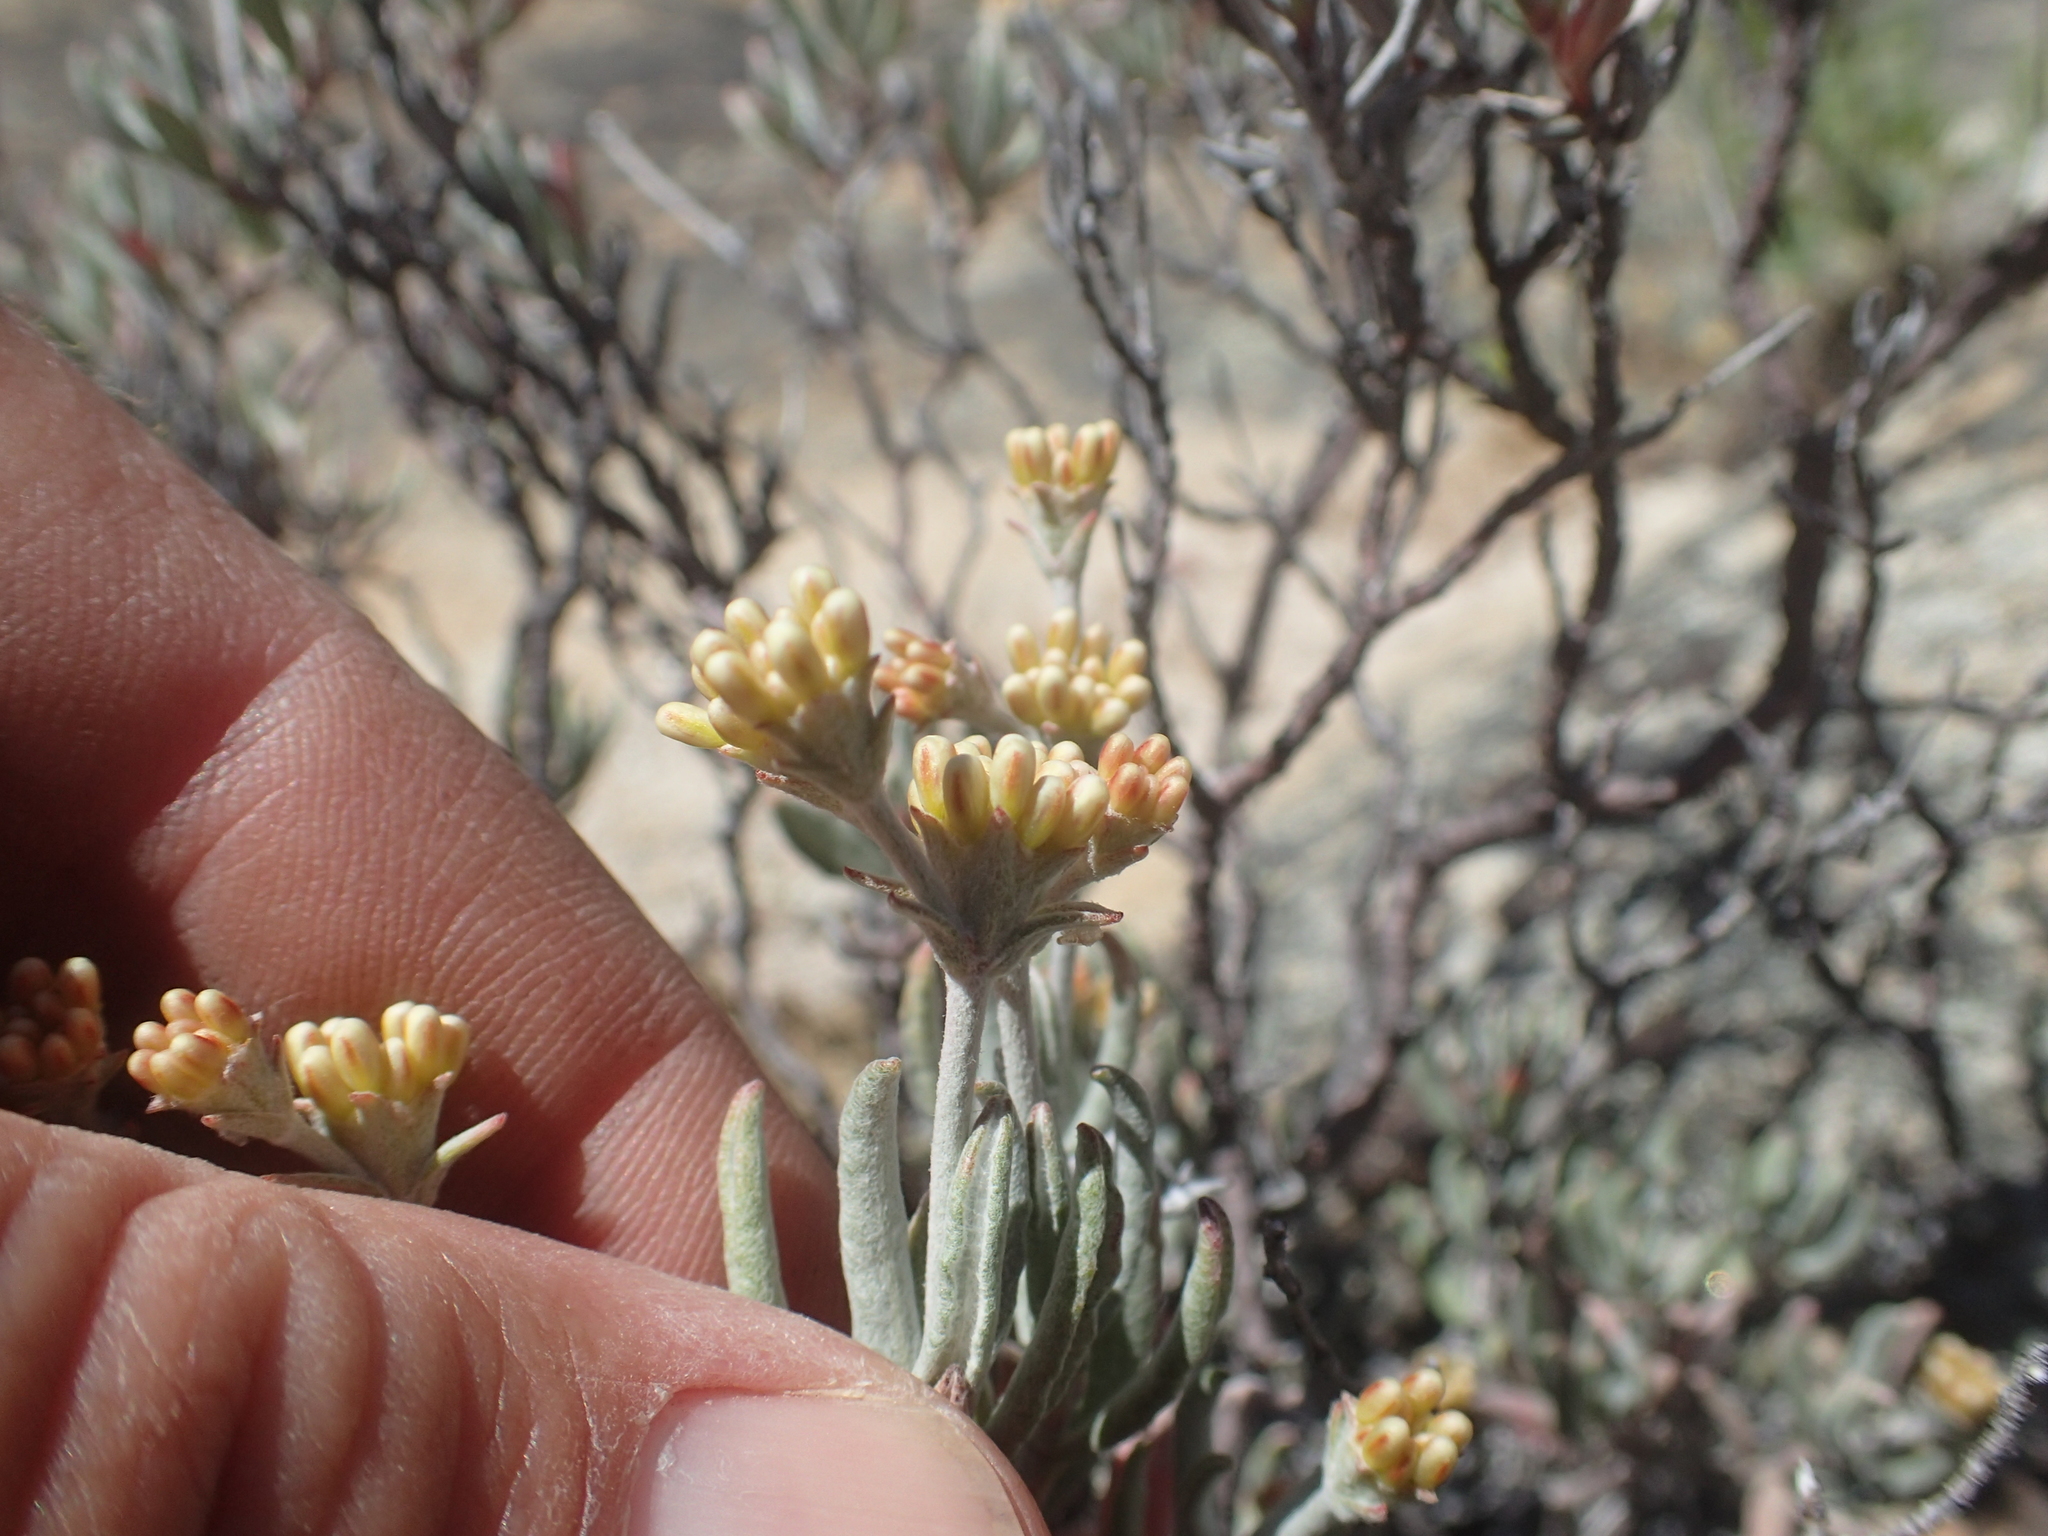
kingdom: Plantae
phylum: Tracheophyta
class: Magnoliopsida
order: Caryophyllales
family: Polygonaceae
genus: Eriogonum
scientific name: Eriogonum butterworthianum
